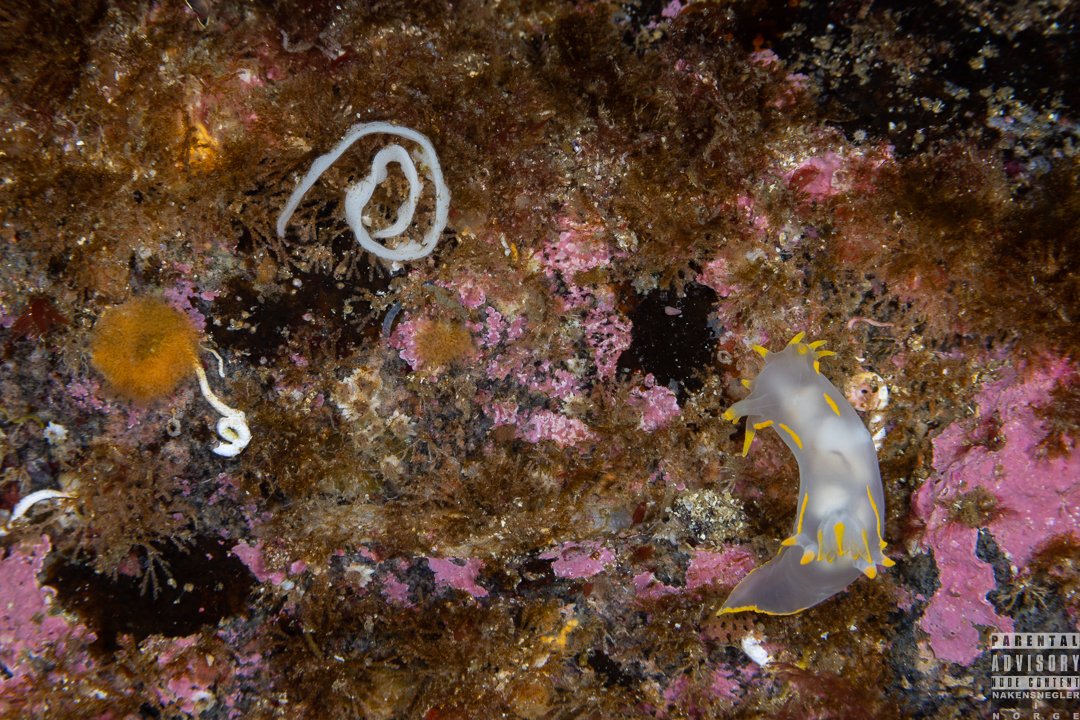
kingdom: Animalia
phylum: Mollusca
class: Gastropoda
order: Nudibranchia
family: Polyceridae
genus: Polycera
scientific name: Polycera faeroensis
